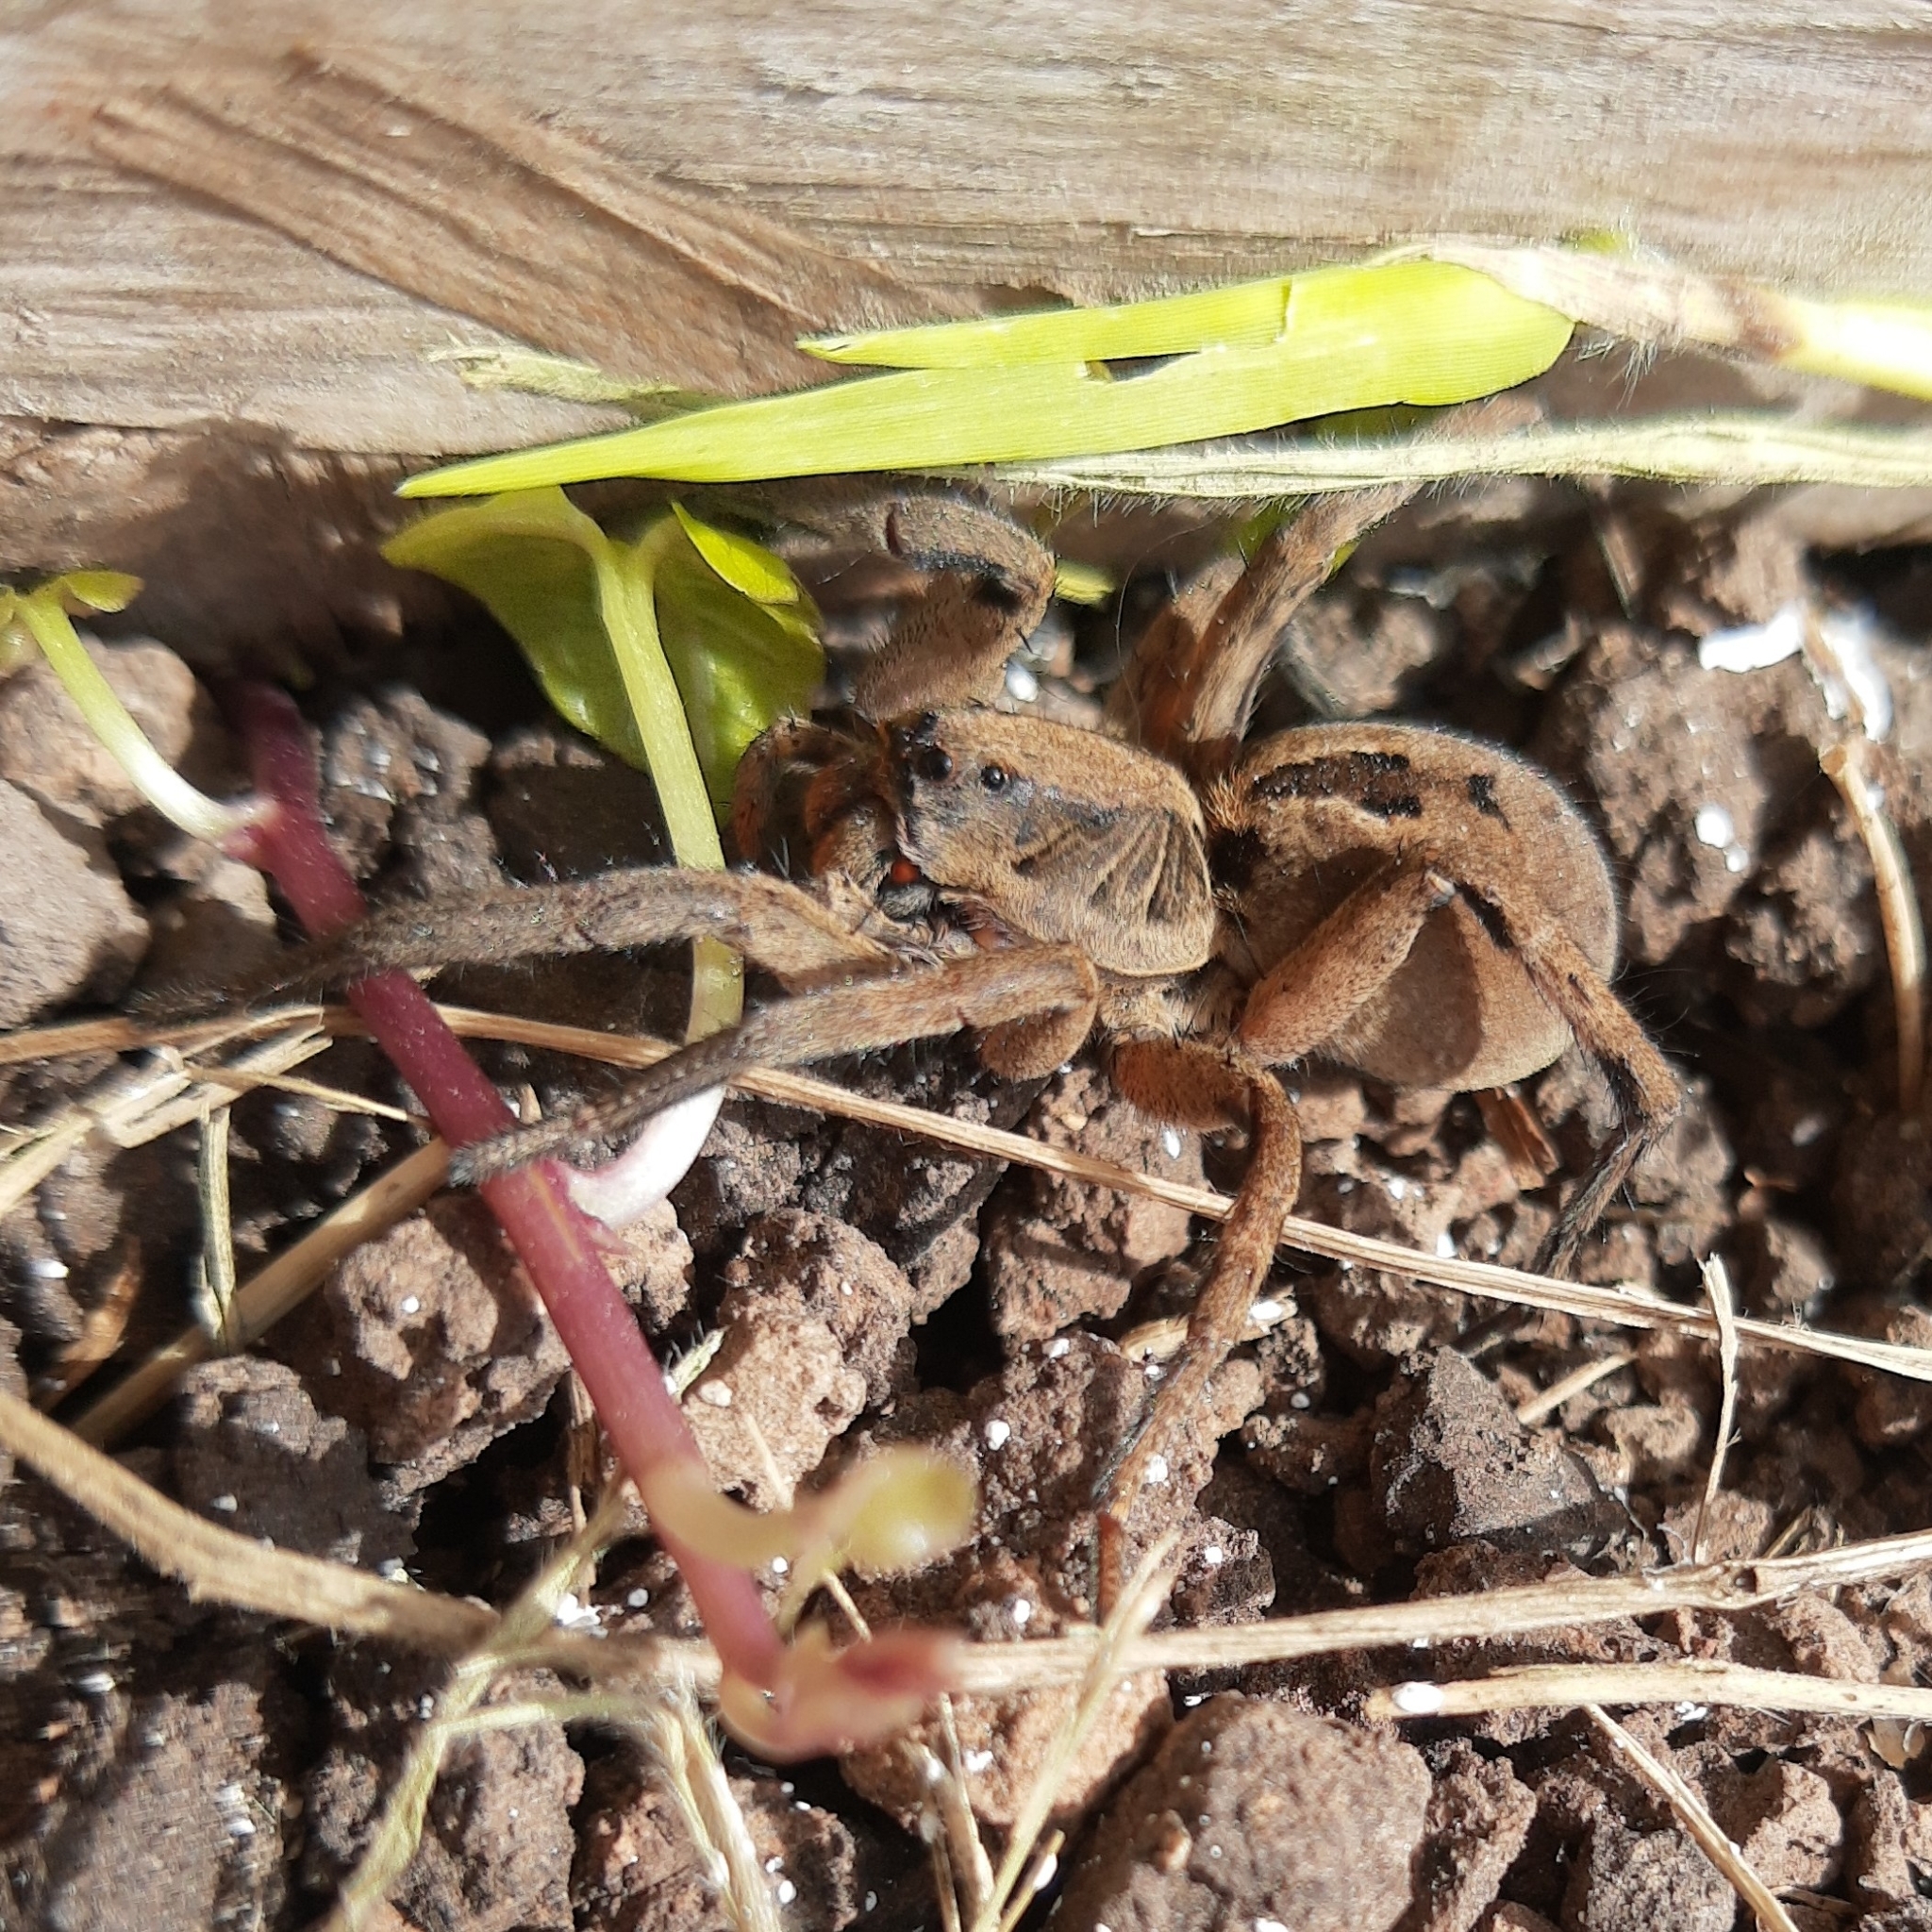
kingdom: Animalia
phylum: Arthropoda
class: Arachnida
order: Araneae
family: Lycosidae
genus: Lycosa
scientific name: Lycosa erythrognatha
